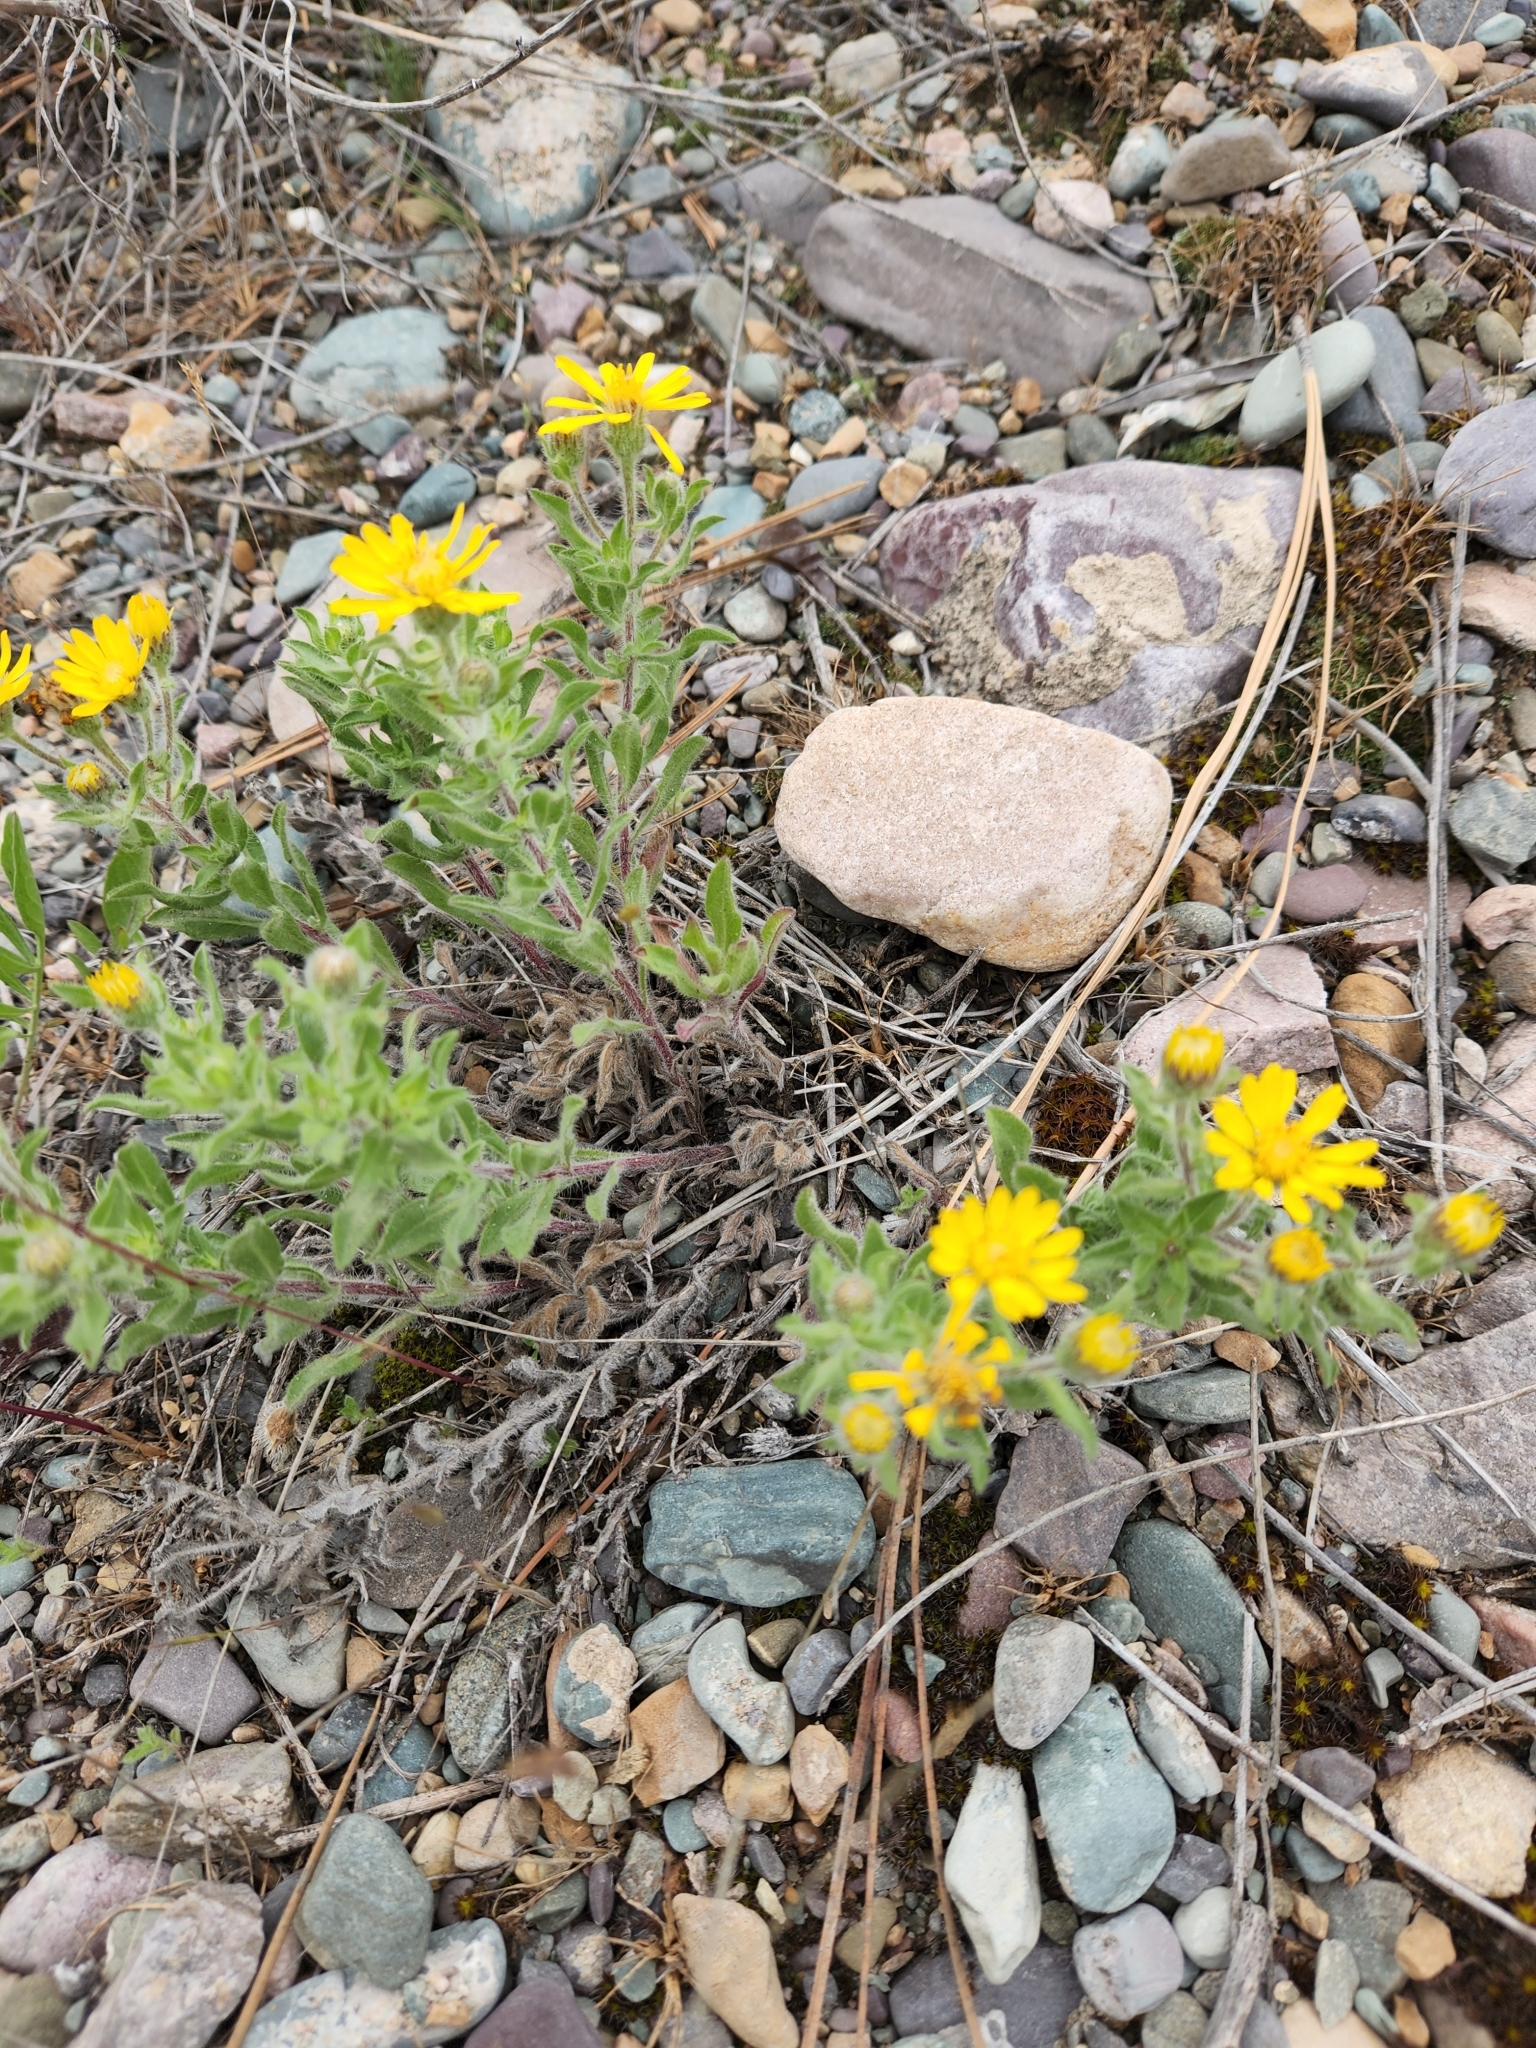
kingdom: Plantae
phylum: Tracheophyta
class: Magnoliopsida
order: Asterales
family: Asteraceae
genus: Heterotheca
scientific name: Heterotheca villosa
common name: Hairy false goldenaster
